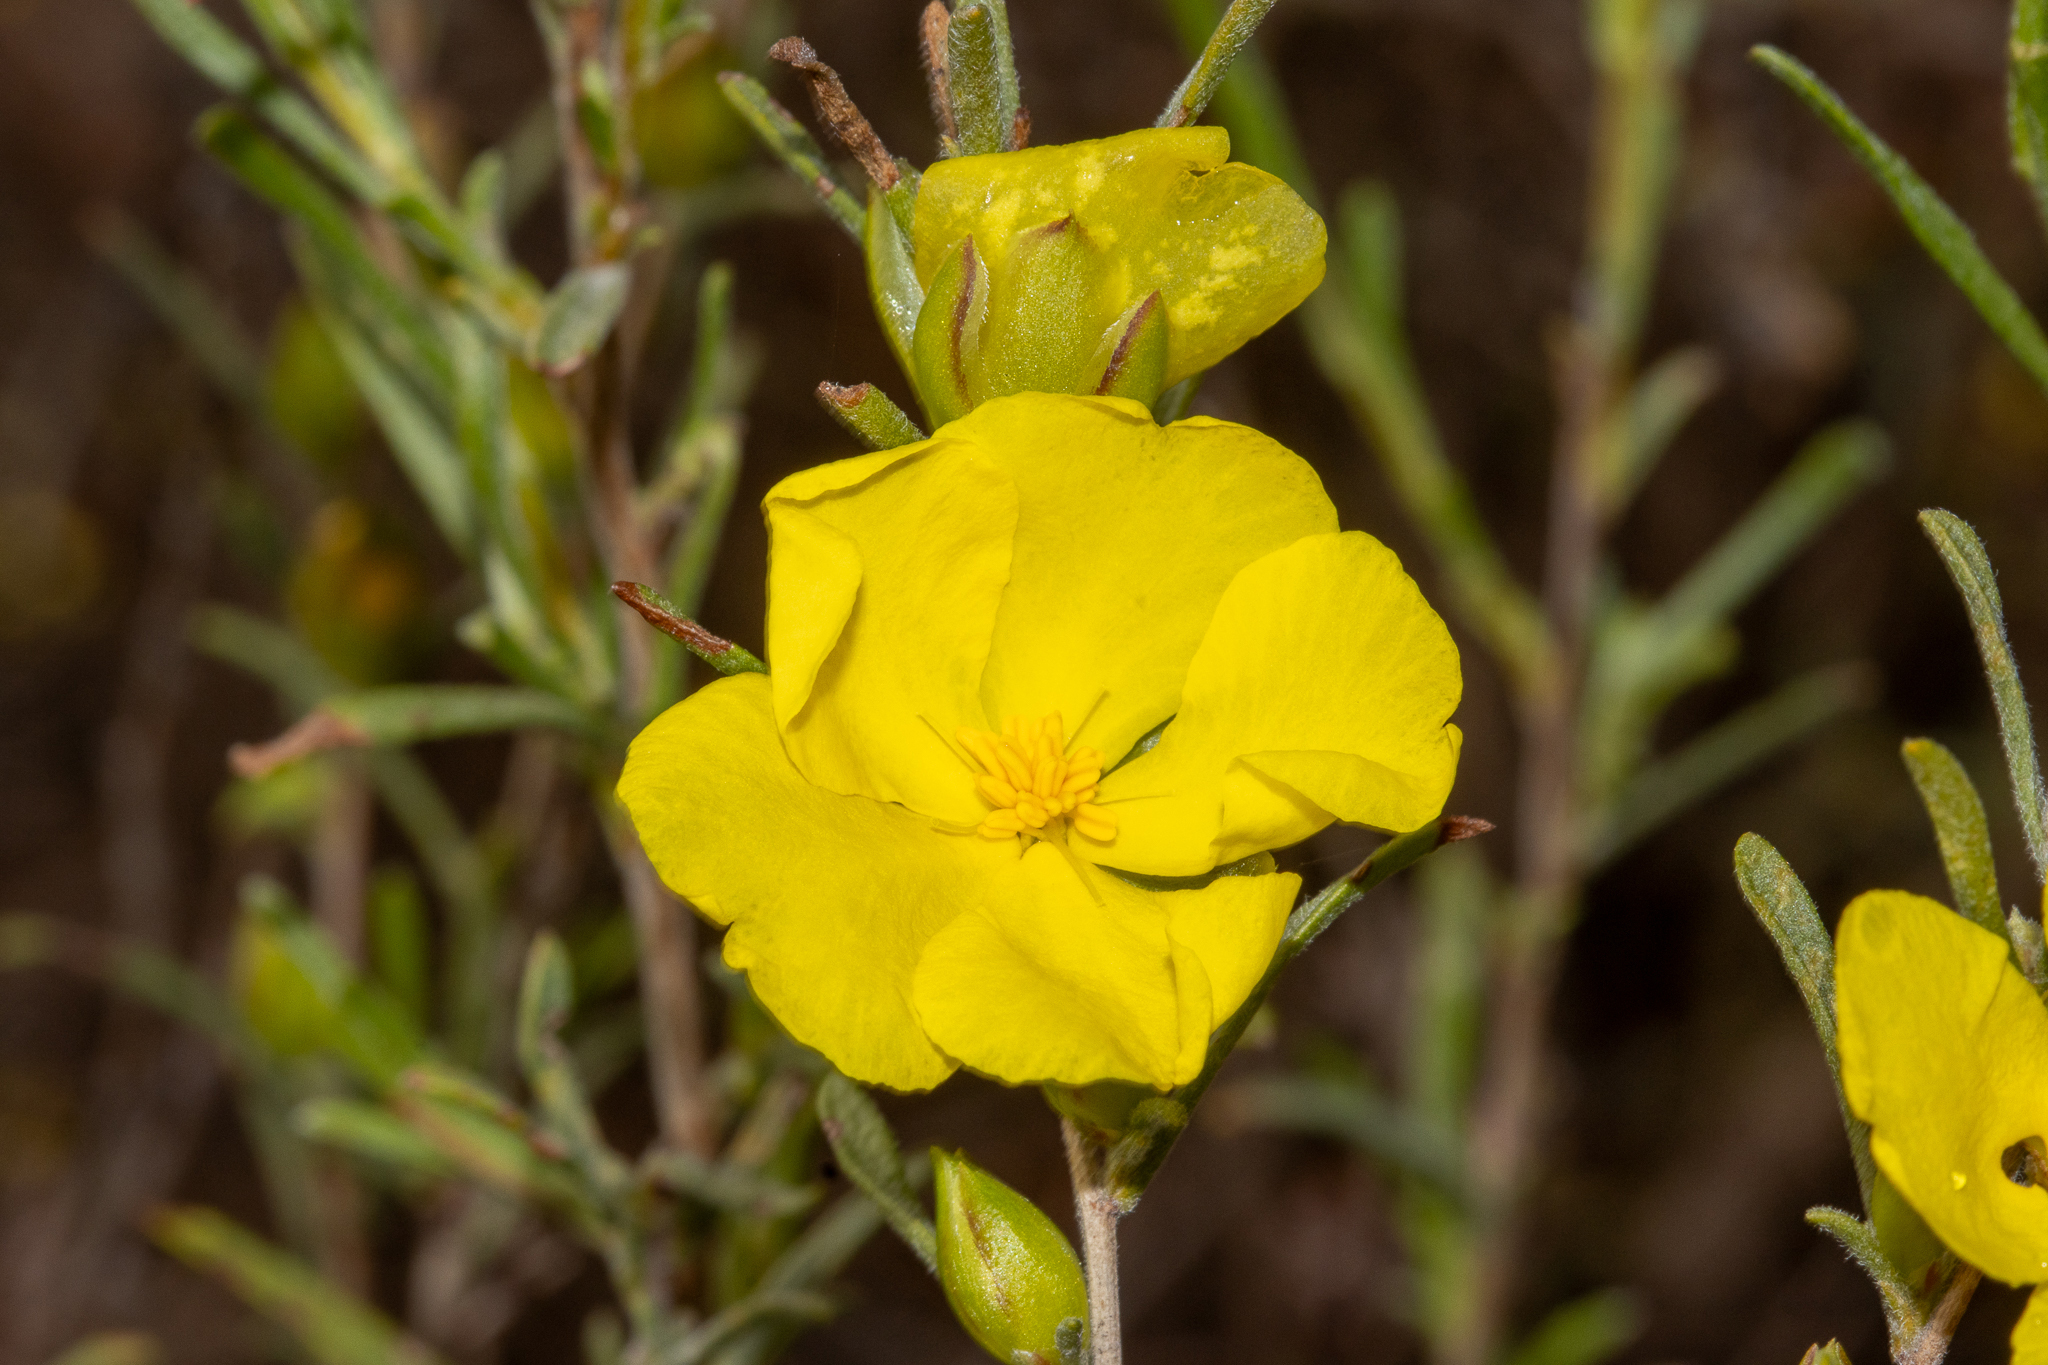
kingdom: Plantae
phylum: Tracheophyta
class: Magnoliopsida
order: Dilleniales
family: Dilleniaceae
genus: Hibbertia
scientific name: Hibbertia virgata
